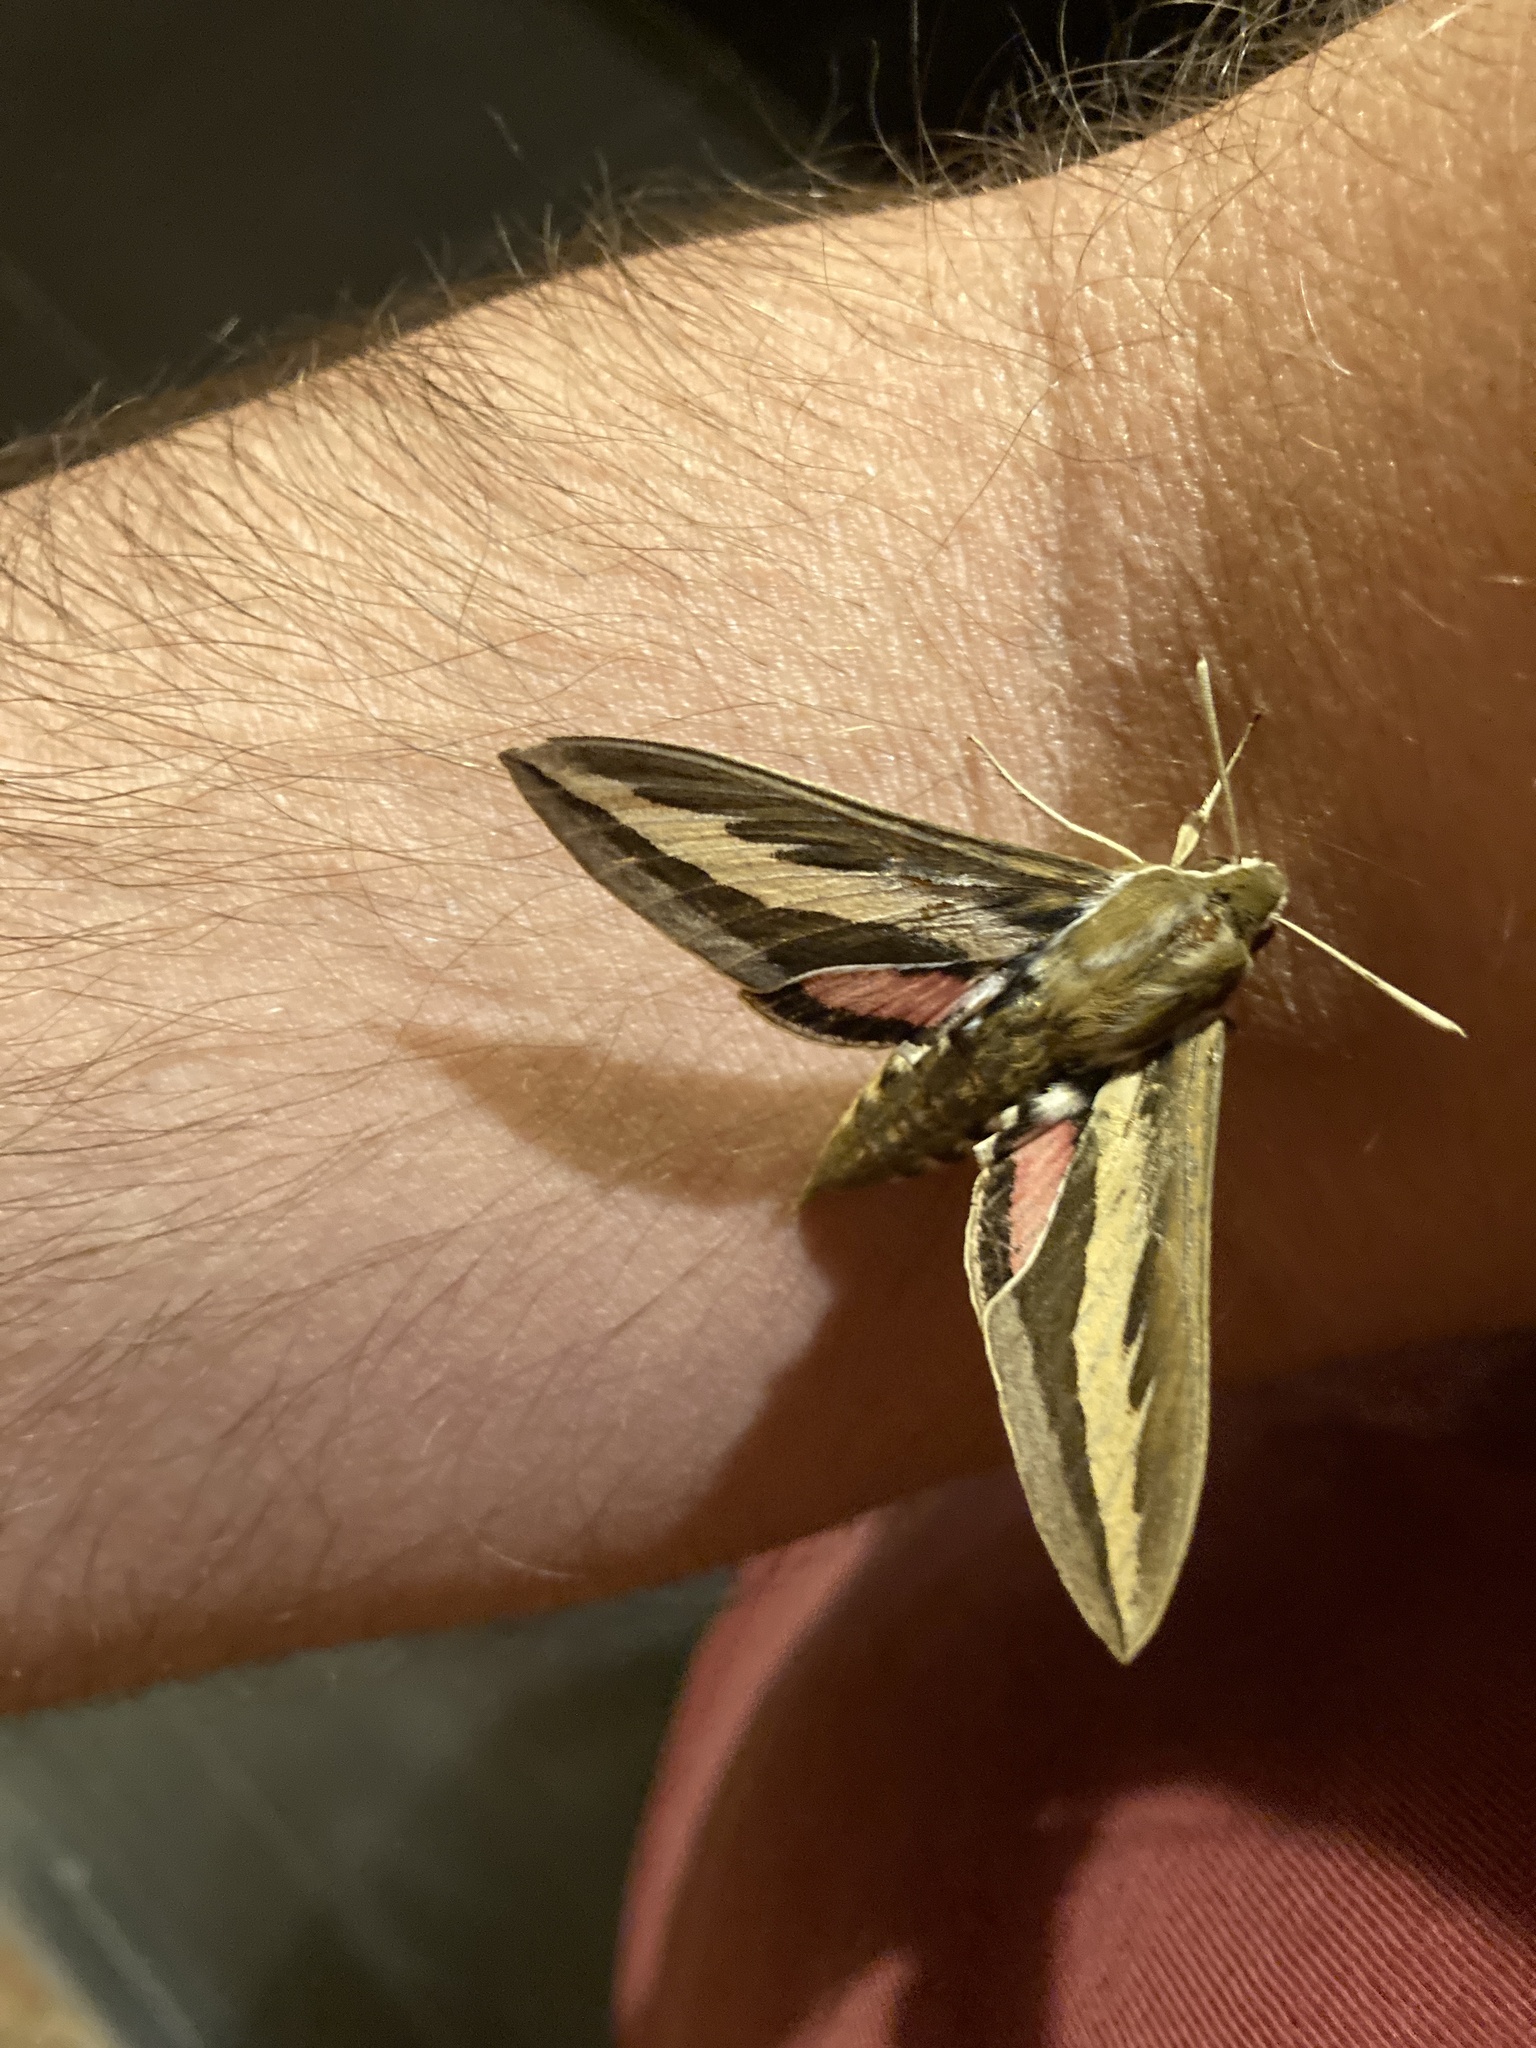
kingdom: Animalia
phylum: Arthropoda
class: Insecta
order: Lepidoptera
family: Sphingidae
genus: Hyles
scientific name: Hyles euphorbiarum
